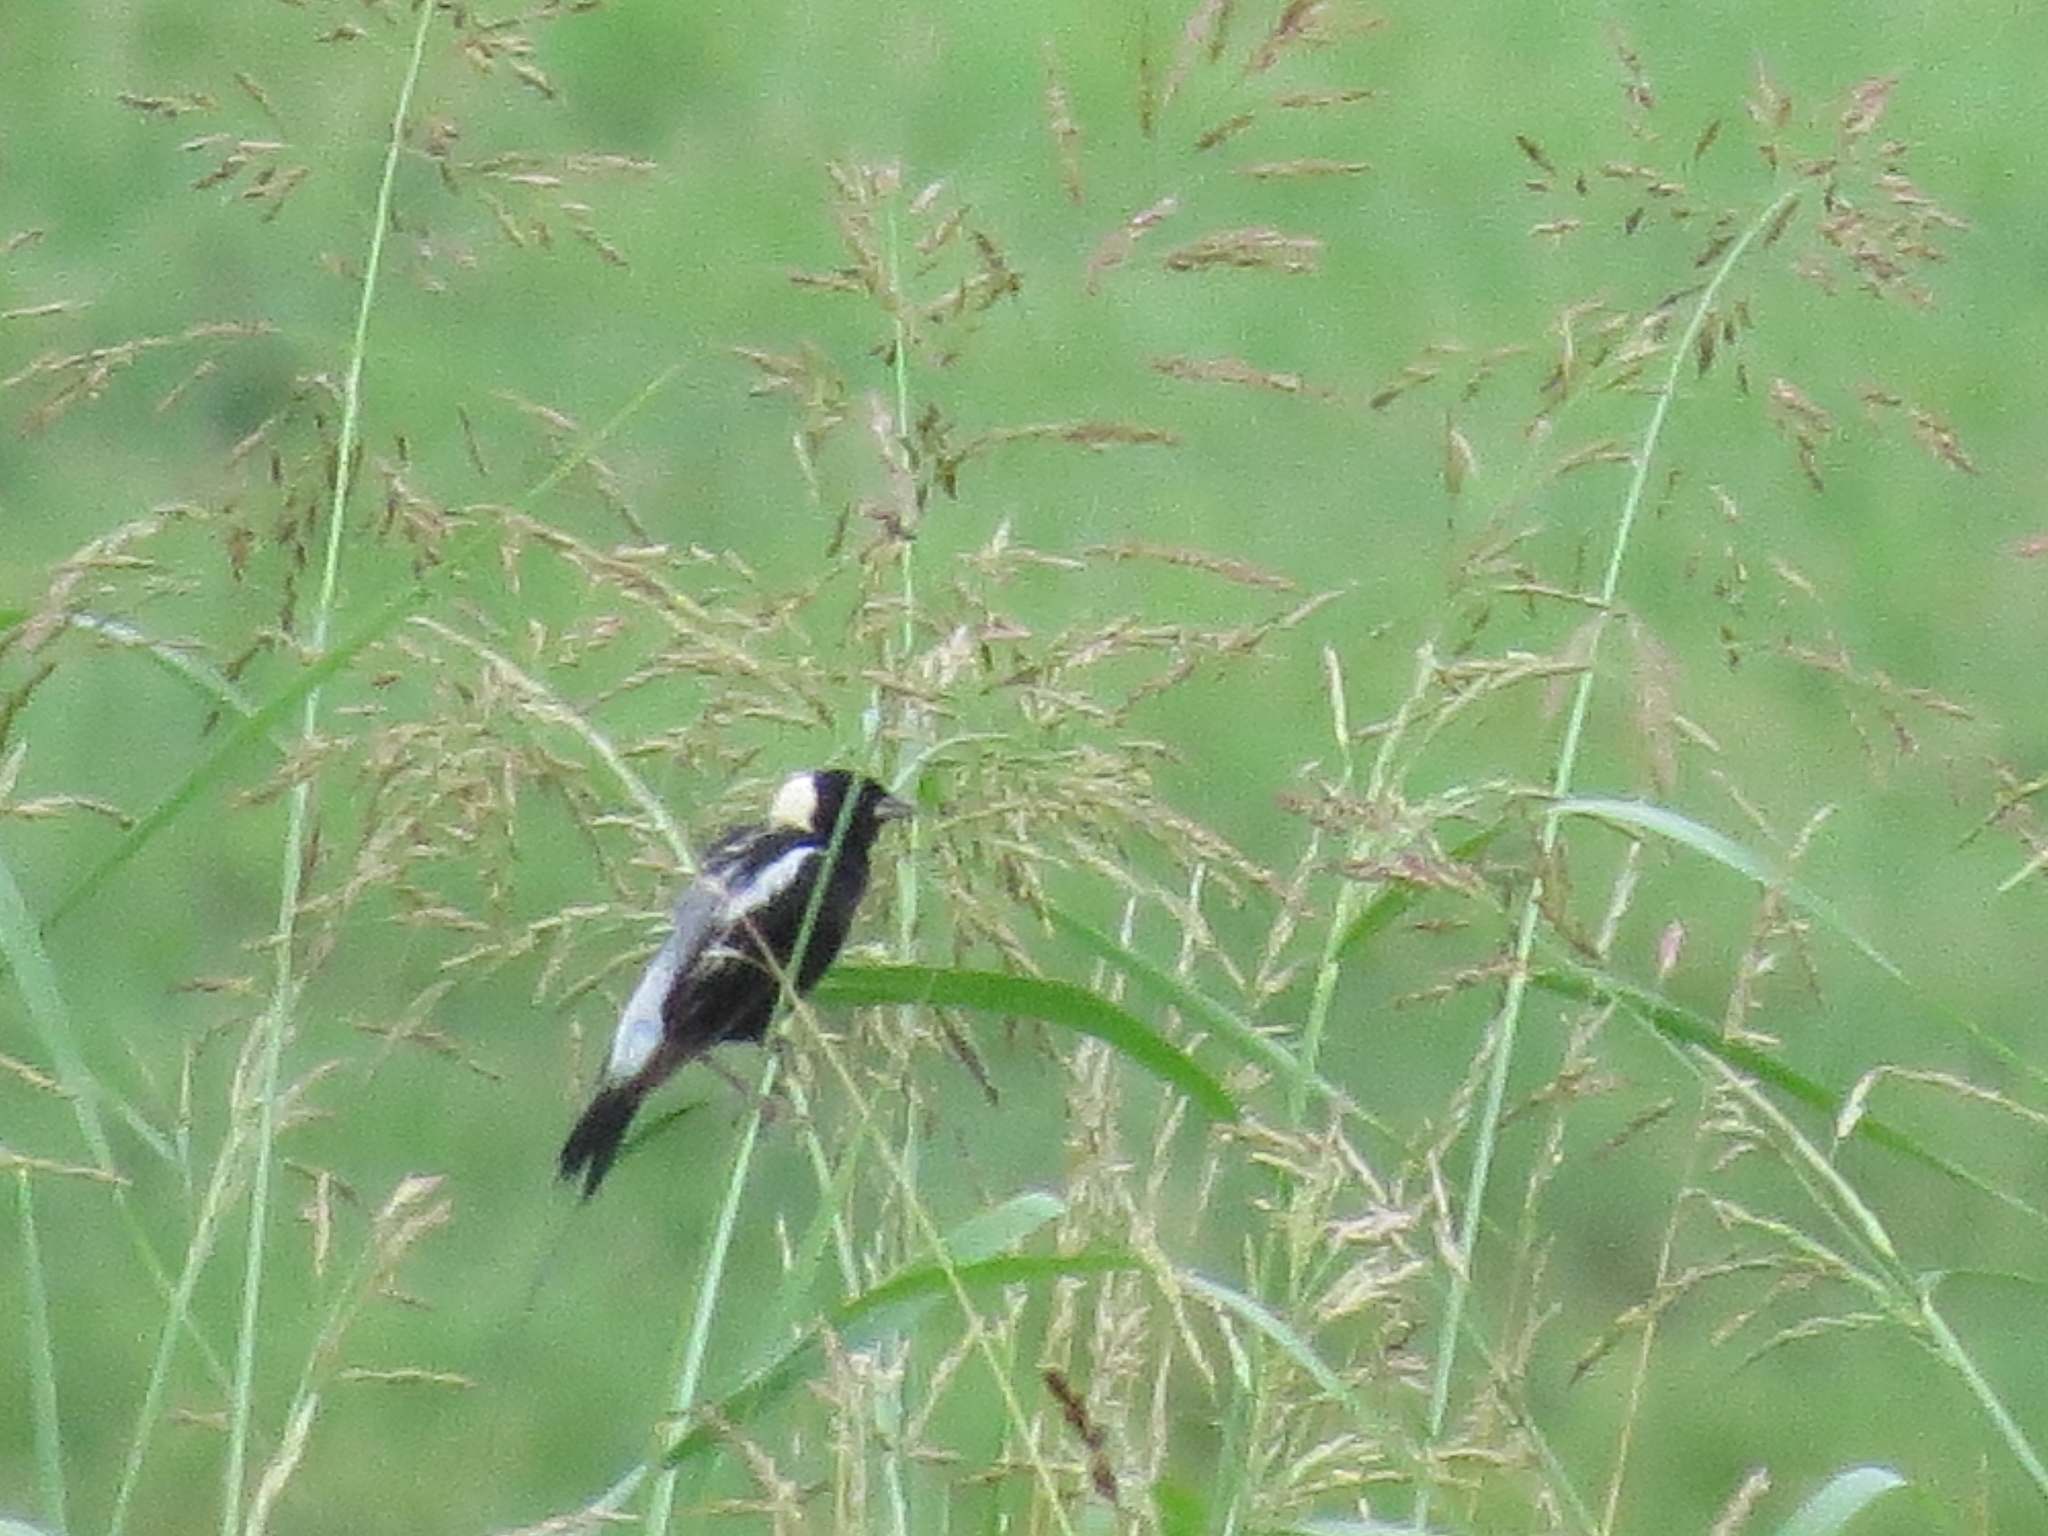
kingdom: Animalia
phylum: Chordata
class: Aves
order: Passeriformes
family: Icteridae
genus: Dolichonyx
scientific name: Dolichonyx oryzivorus
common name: Bobolink
